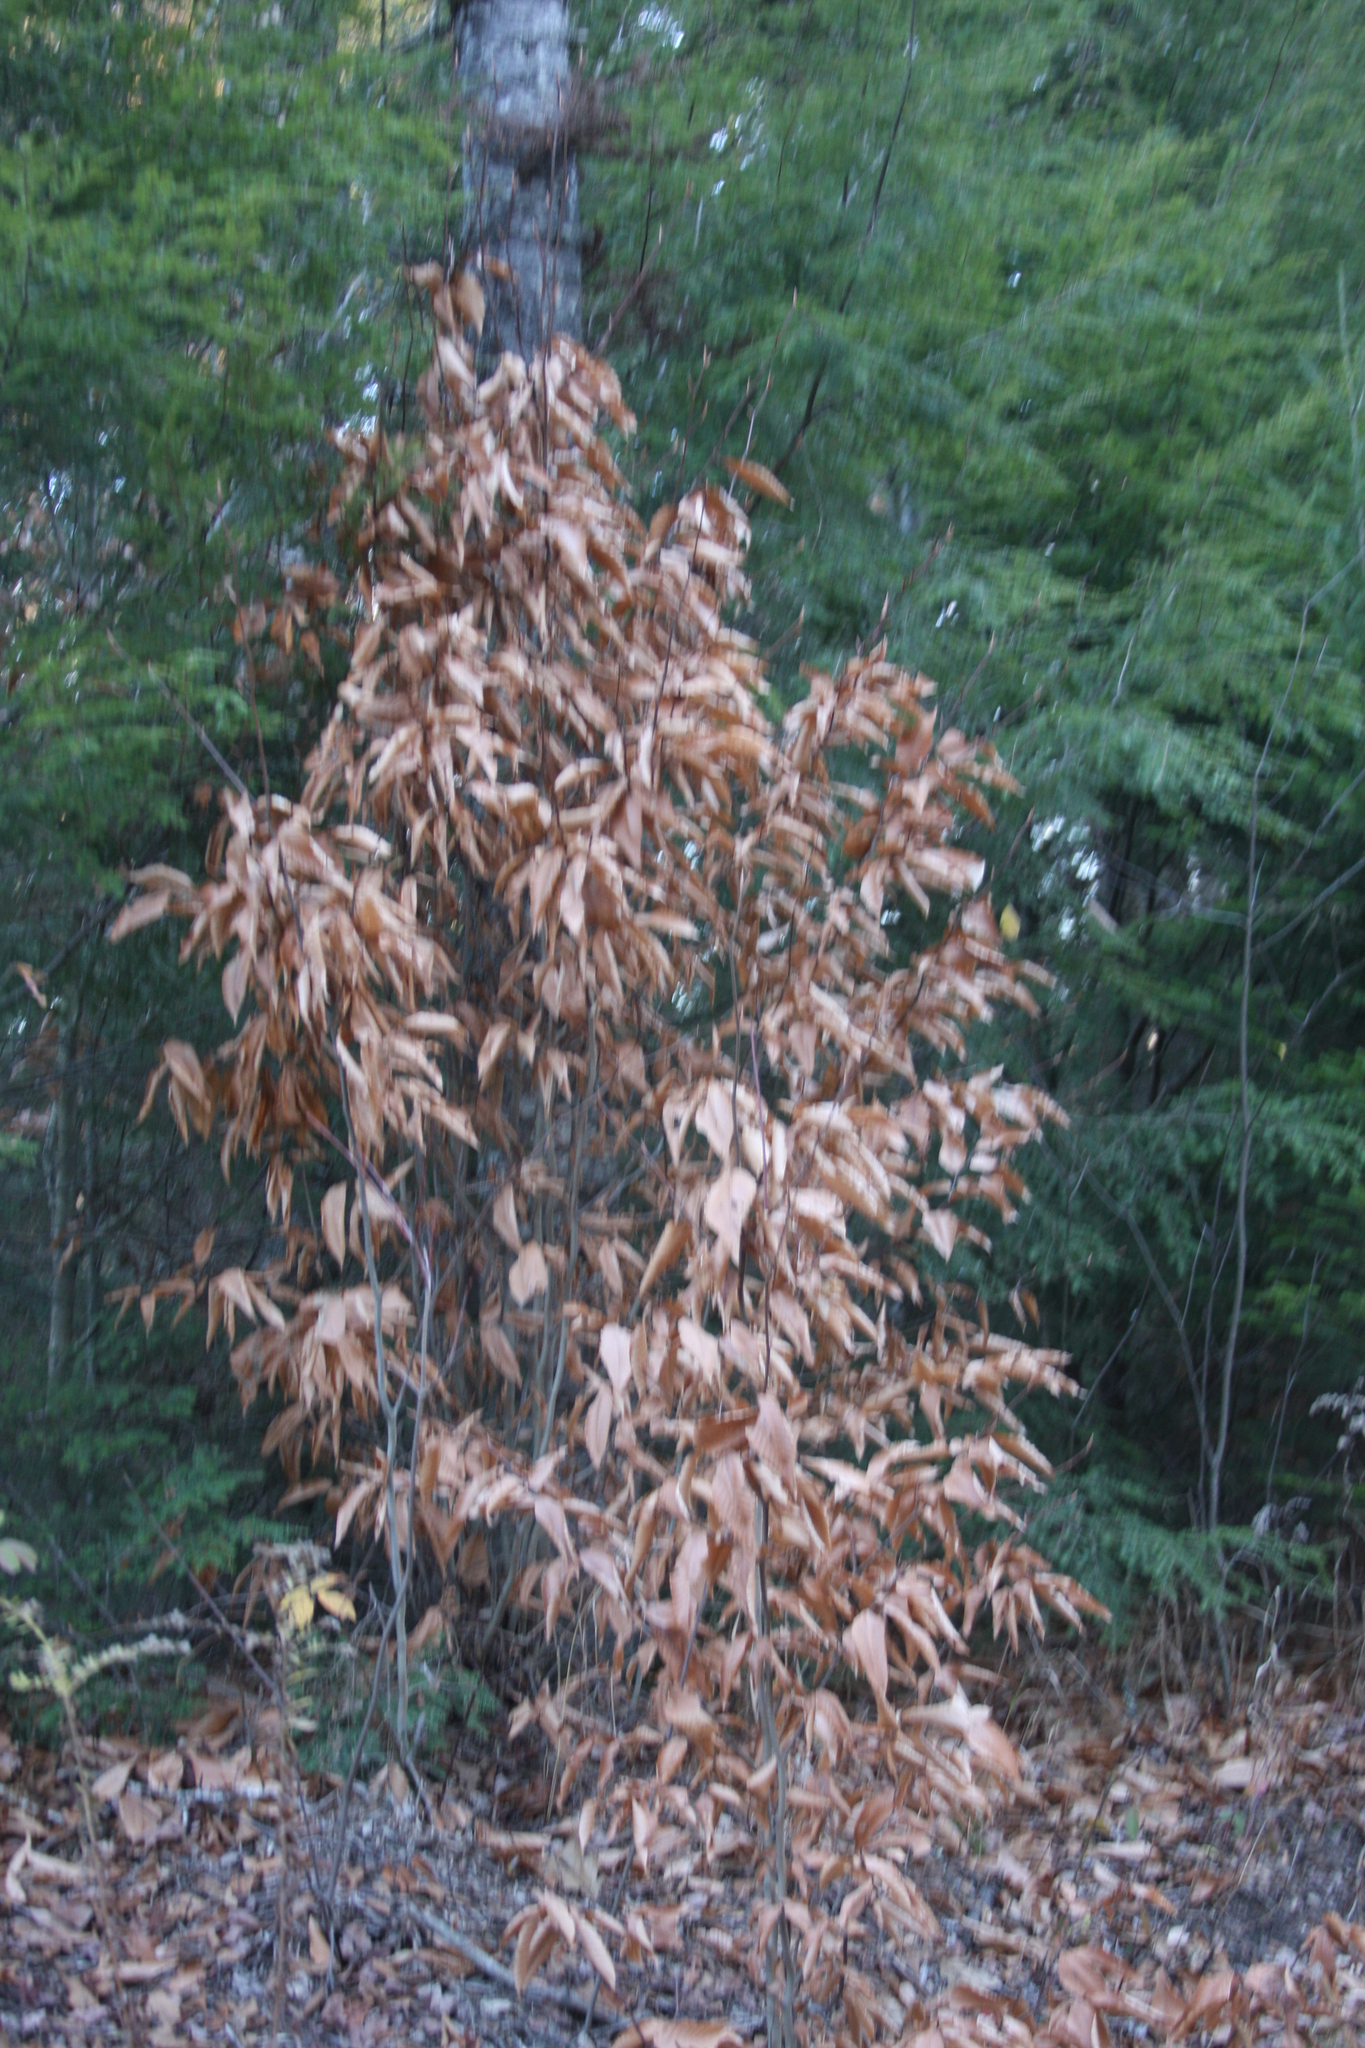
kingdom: Plantae
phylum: Tracheophyta
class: Magnoliopsida
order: Fagales
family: Fagaceae
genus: Fagus
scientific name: Fagus grandifolia
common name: American beech
